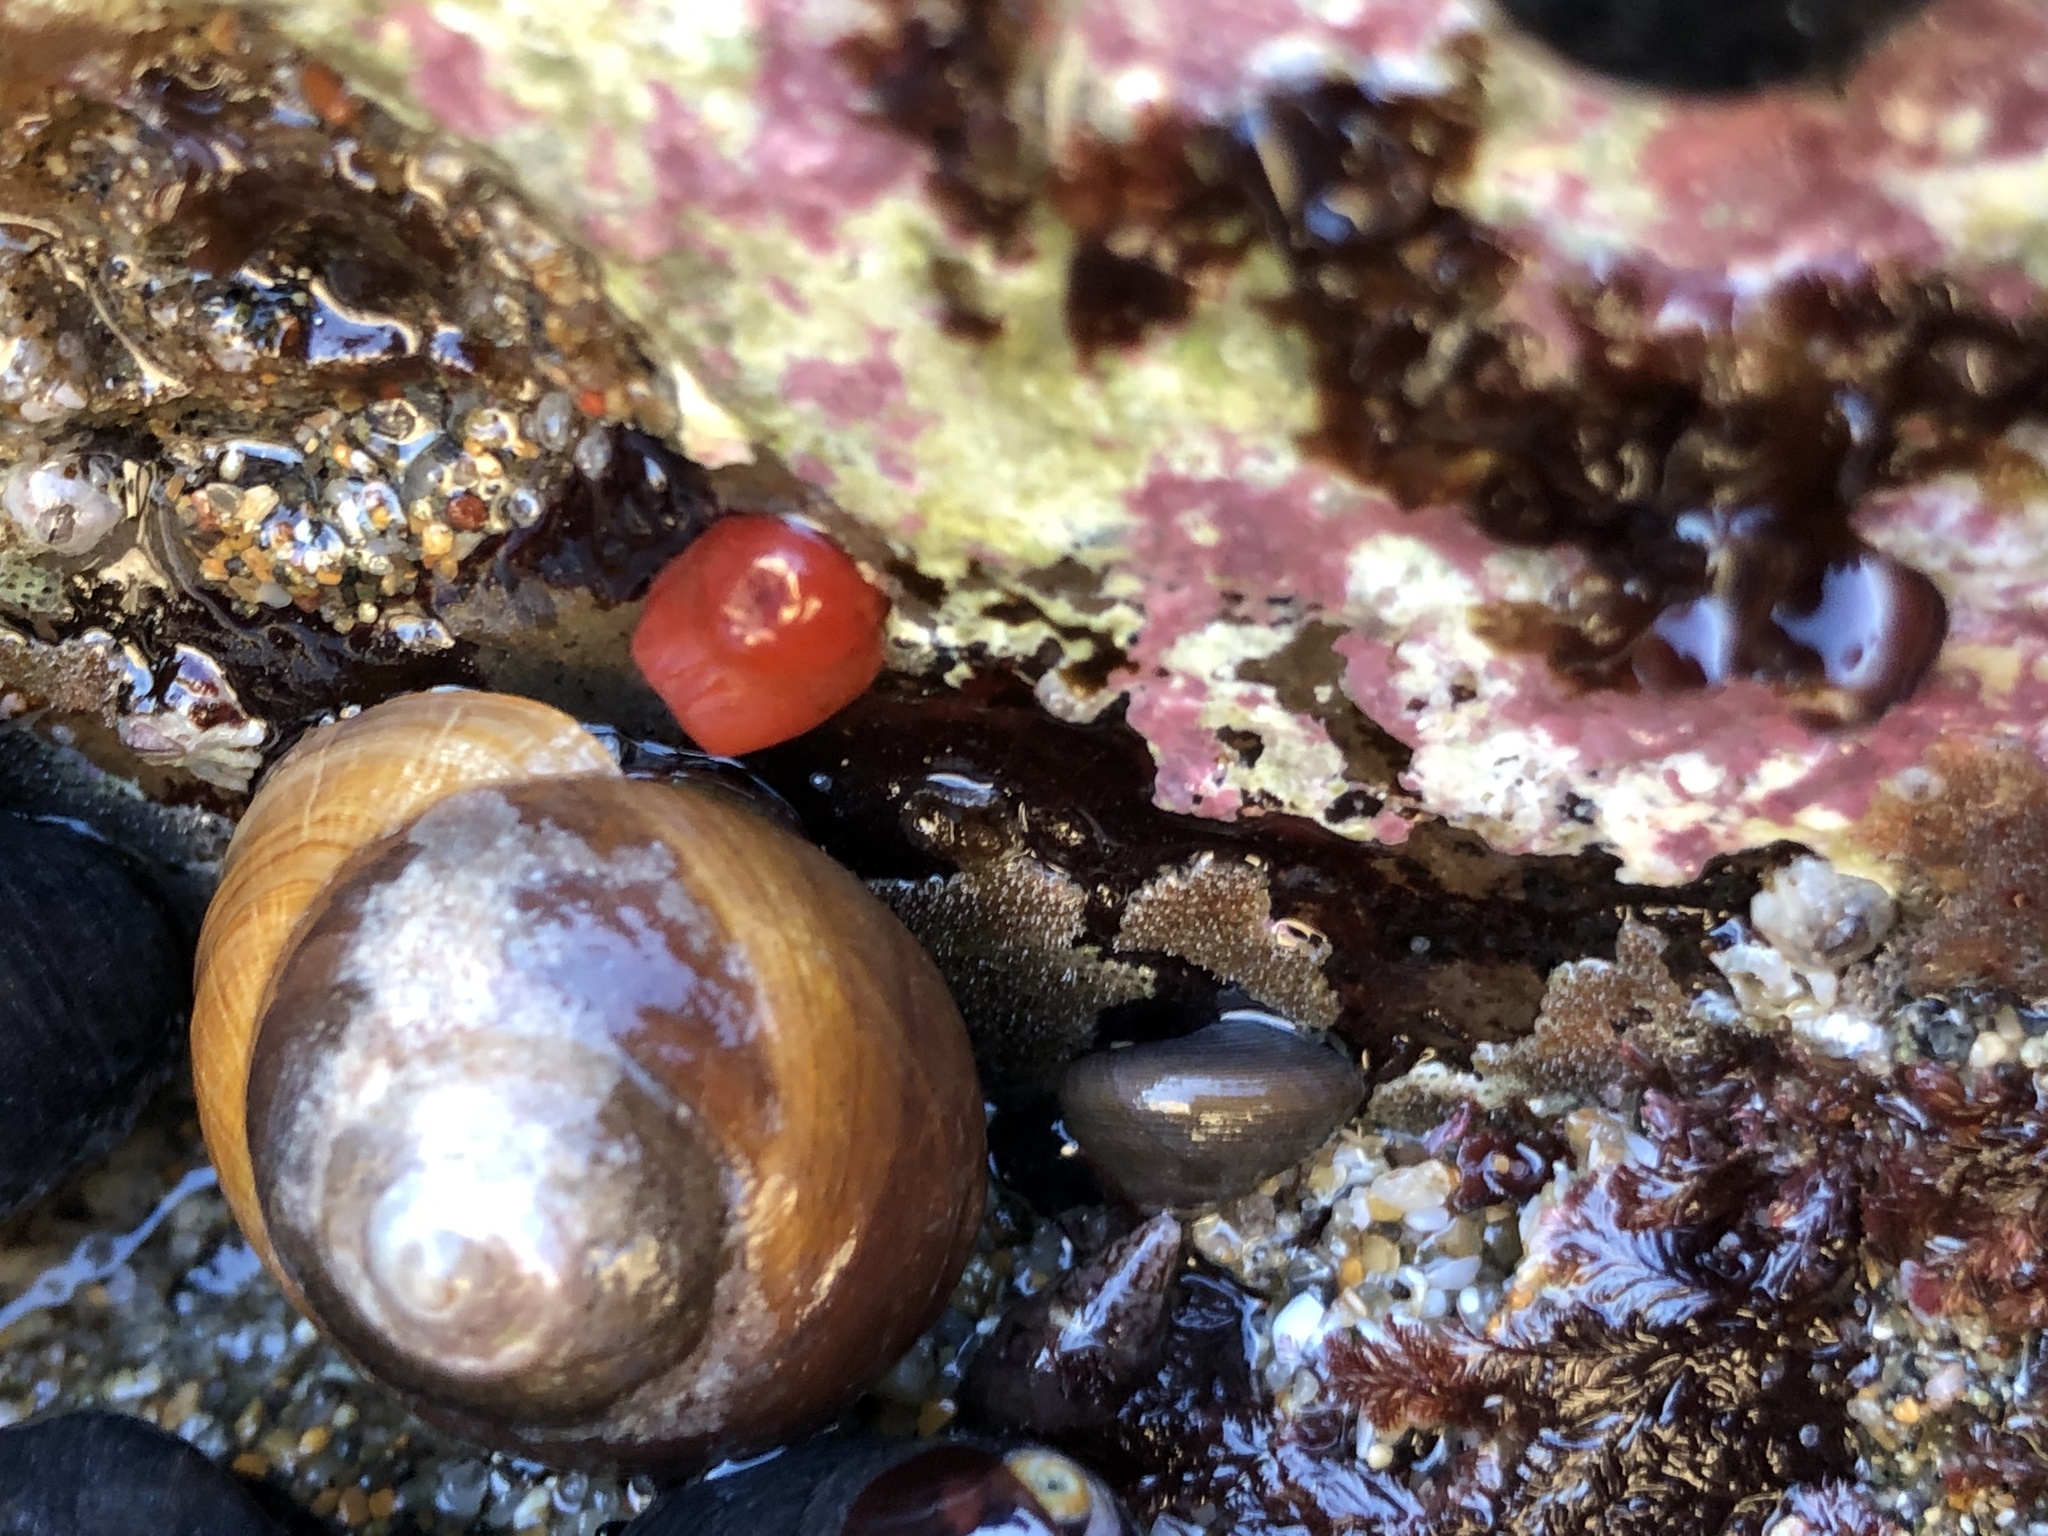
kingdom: Animalia
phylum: Mollusca
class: Bivalvia
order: Adapedonta
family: Hiatellidae
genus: Hiatella
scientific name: Hiatella arctica
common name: Arctic hiatella
